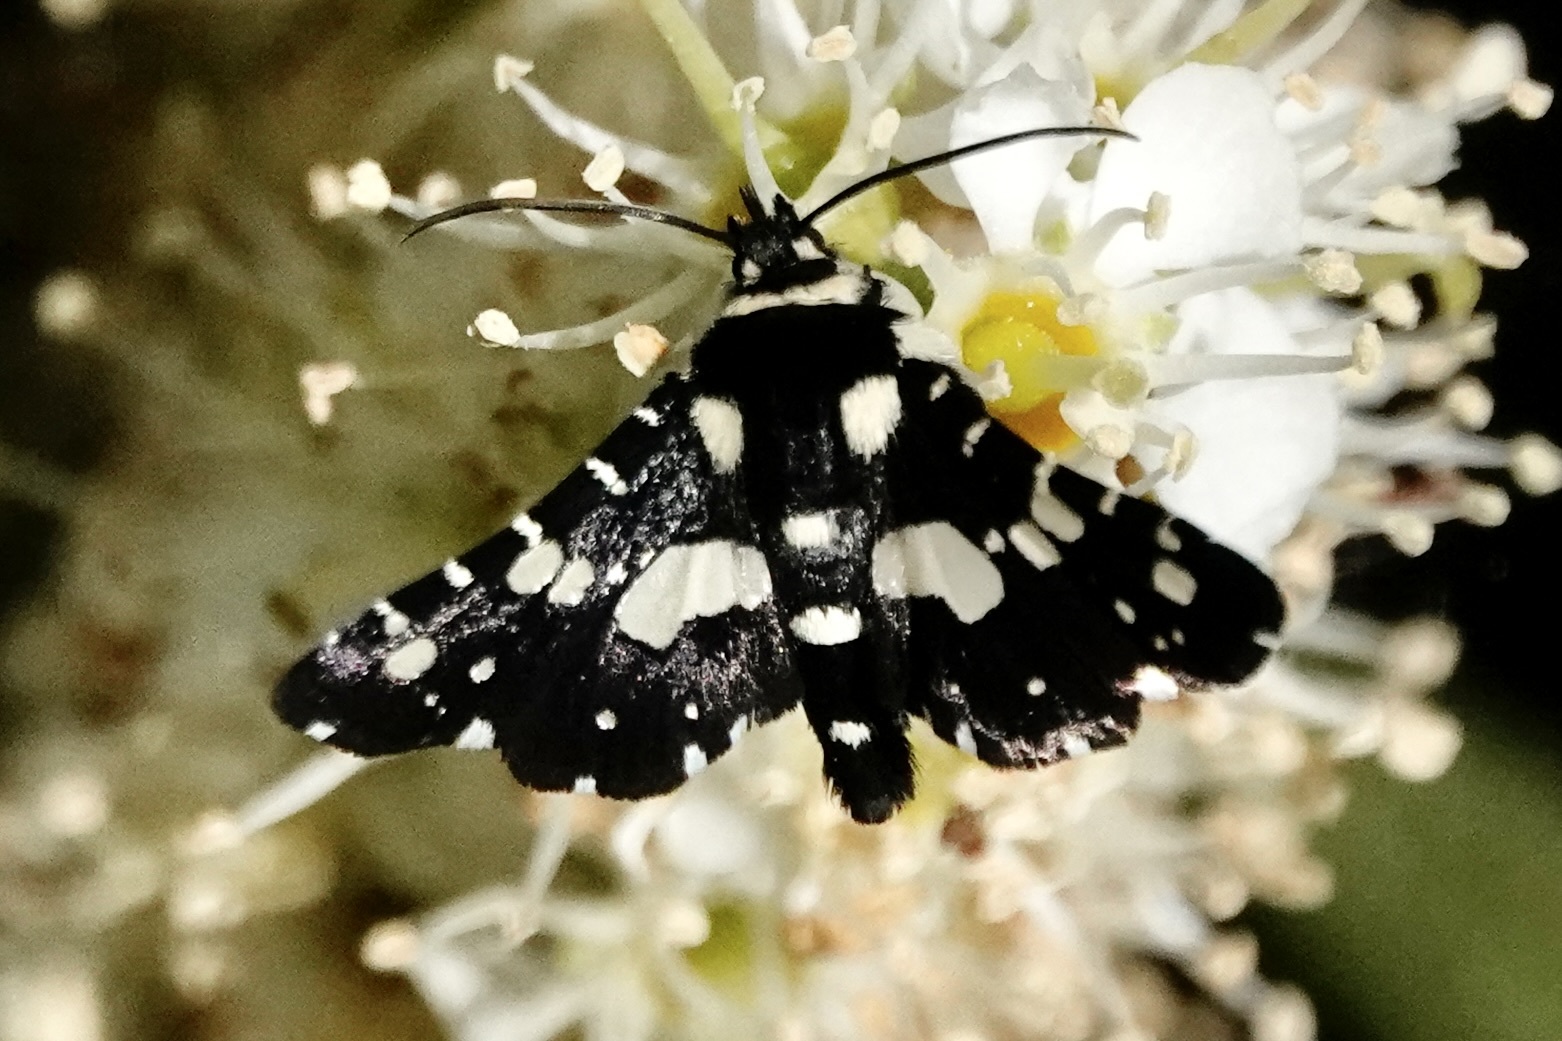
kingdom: Animalia
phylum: Arthropoda
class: Insecta
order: Lepidoptera
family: Thyrididae
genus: Pseudothyris
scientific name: Pseudothyris sepulchralis
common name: Mournful thyris moth
